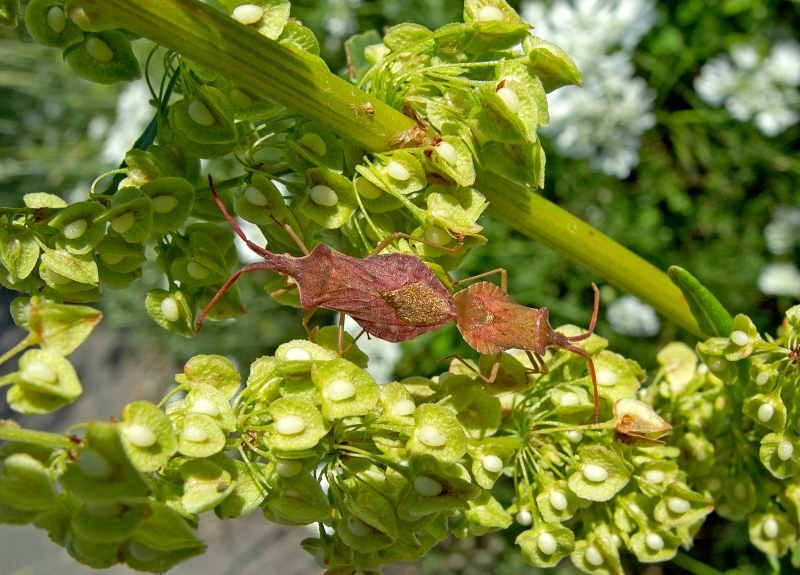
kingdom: Animalia
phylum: Arthropoda
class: Insecta
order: Hemiptera
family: Coreidae
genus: Haploprocta
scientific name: Haploprocta sulcicornis
